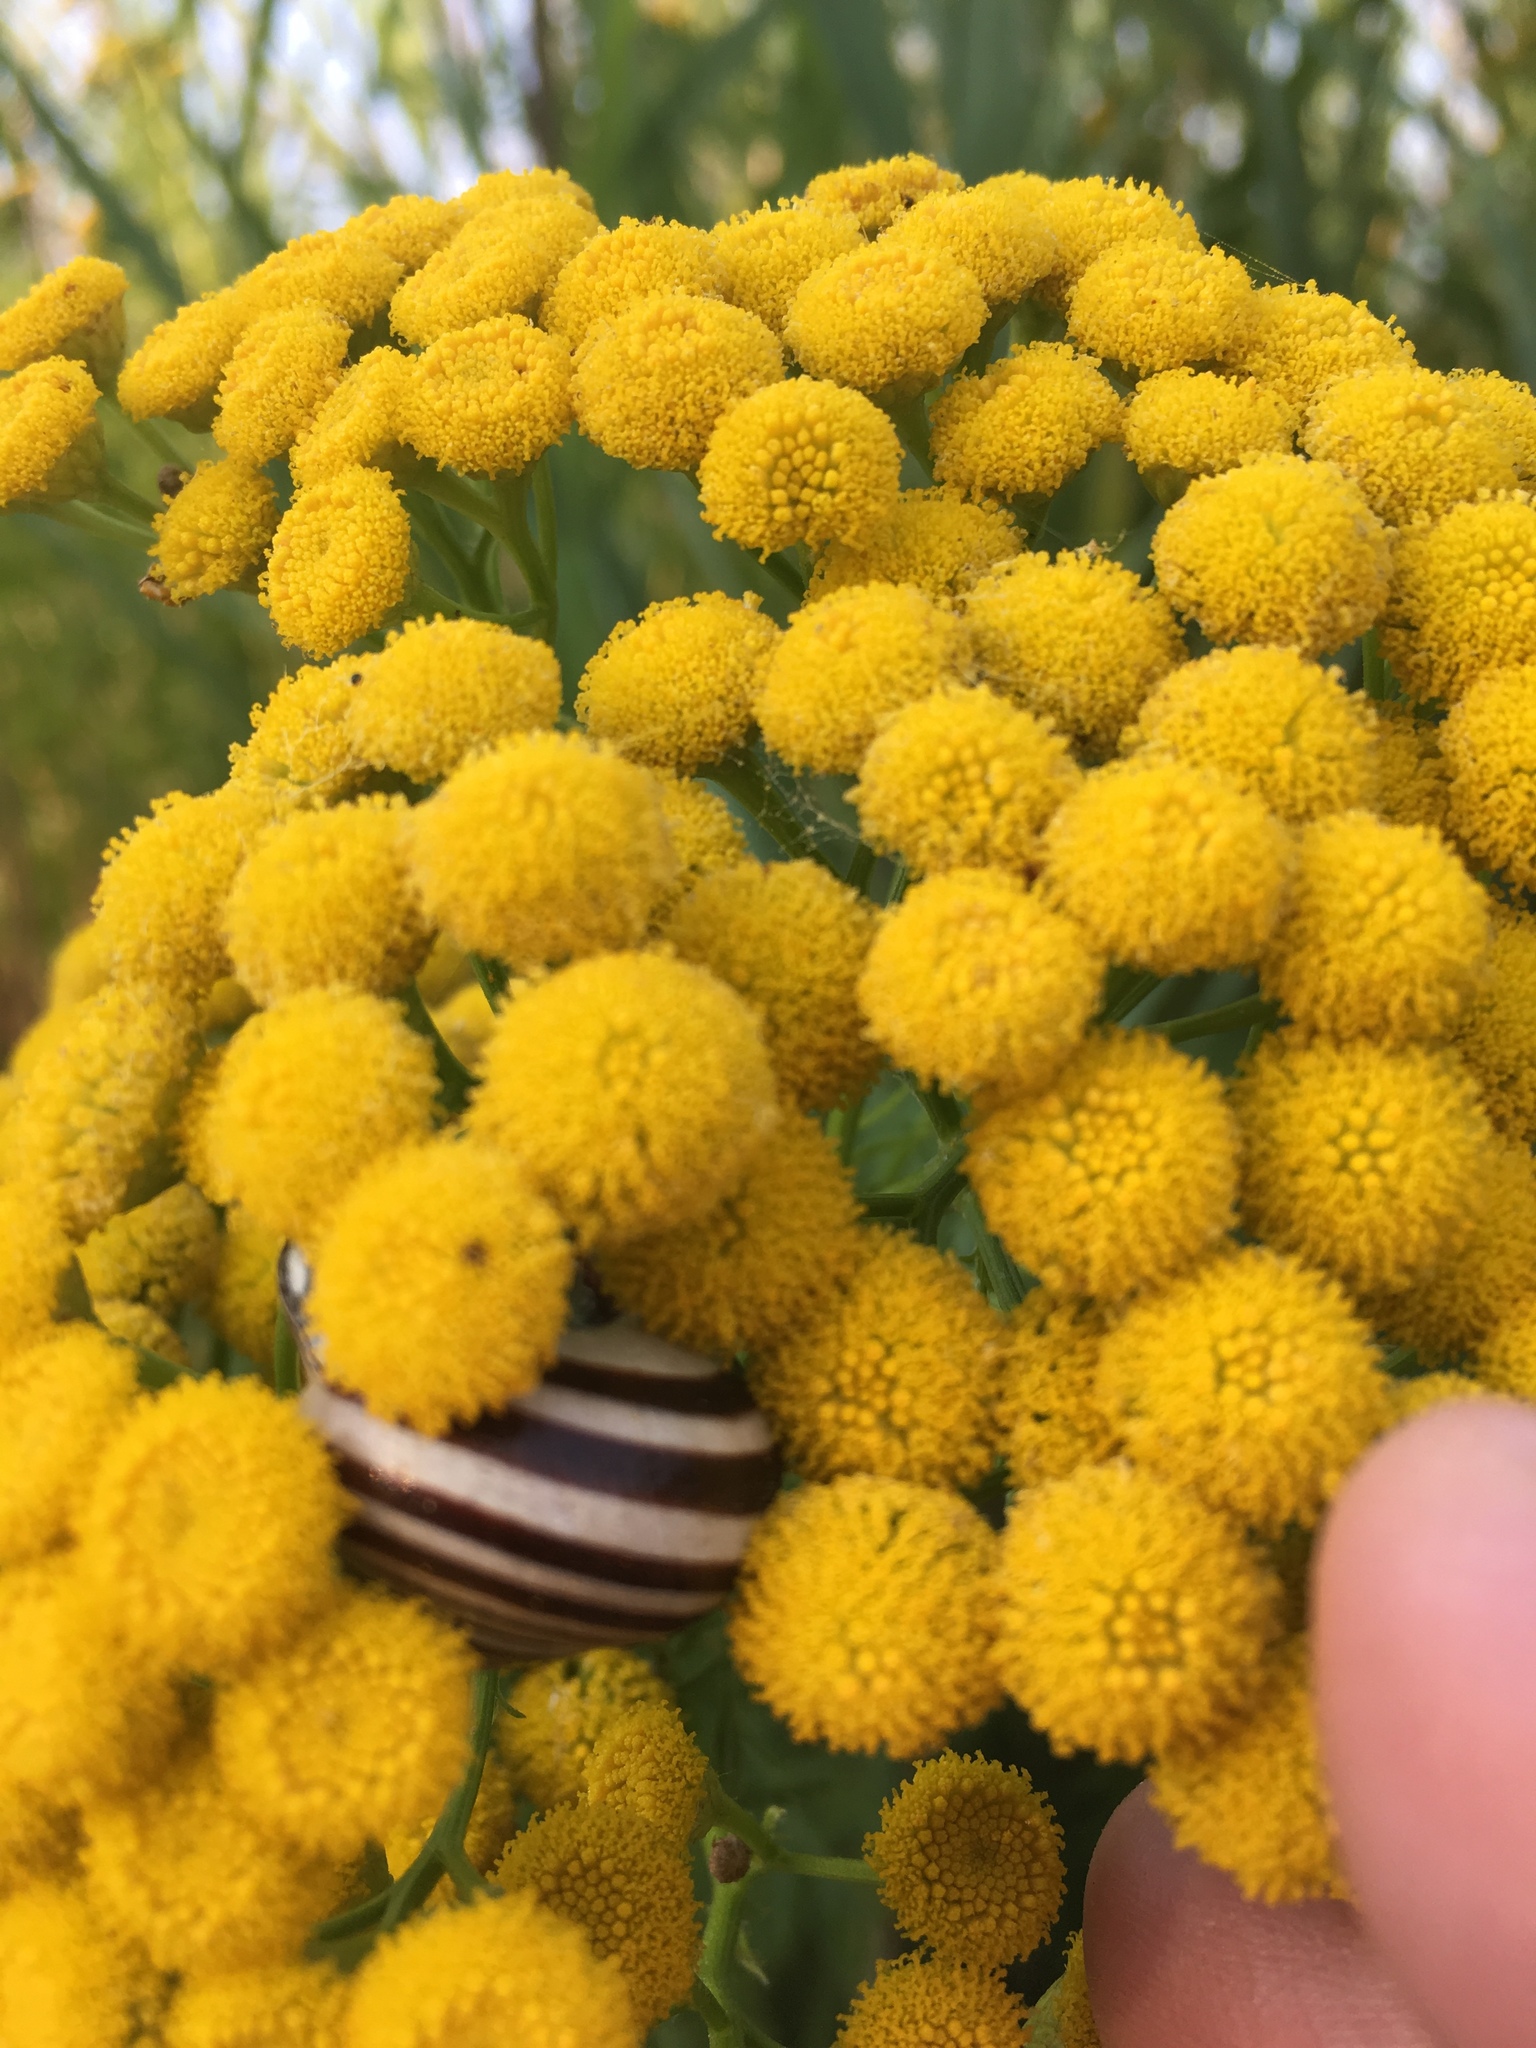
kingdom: Animalia
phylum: Mollusca
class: Gastropoda
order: Stylommatophora
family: Helicidae
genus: Cepaea
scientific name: Cepaea nemoralis
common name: Grovesnail
